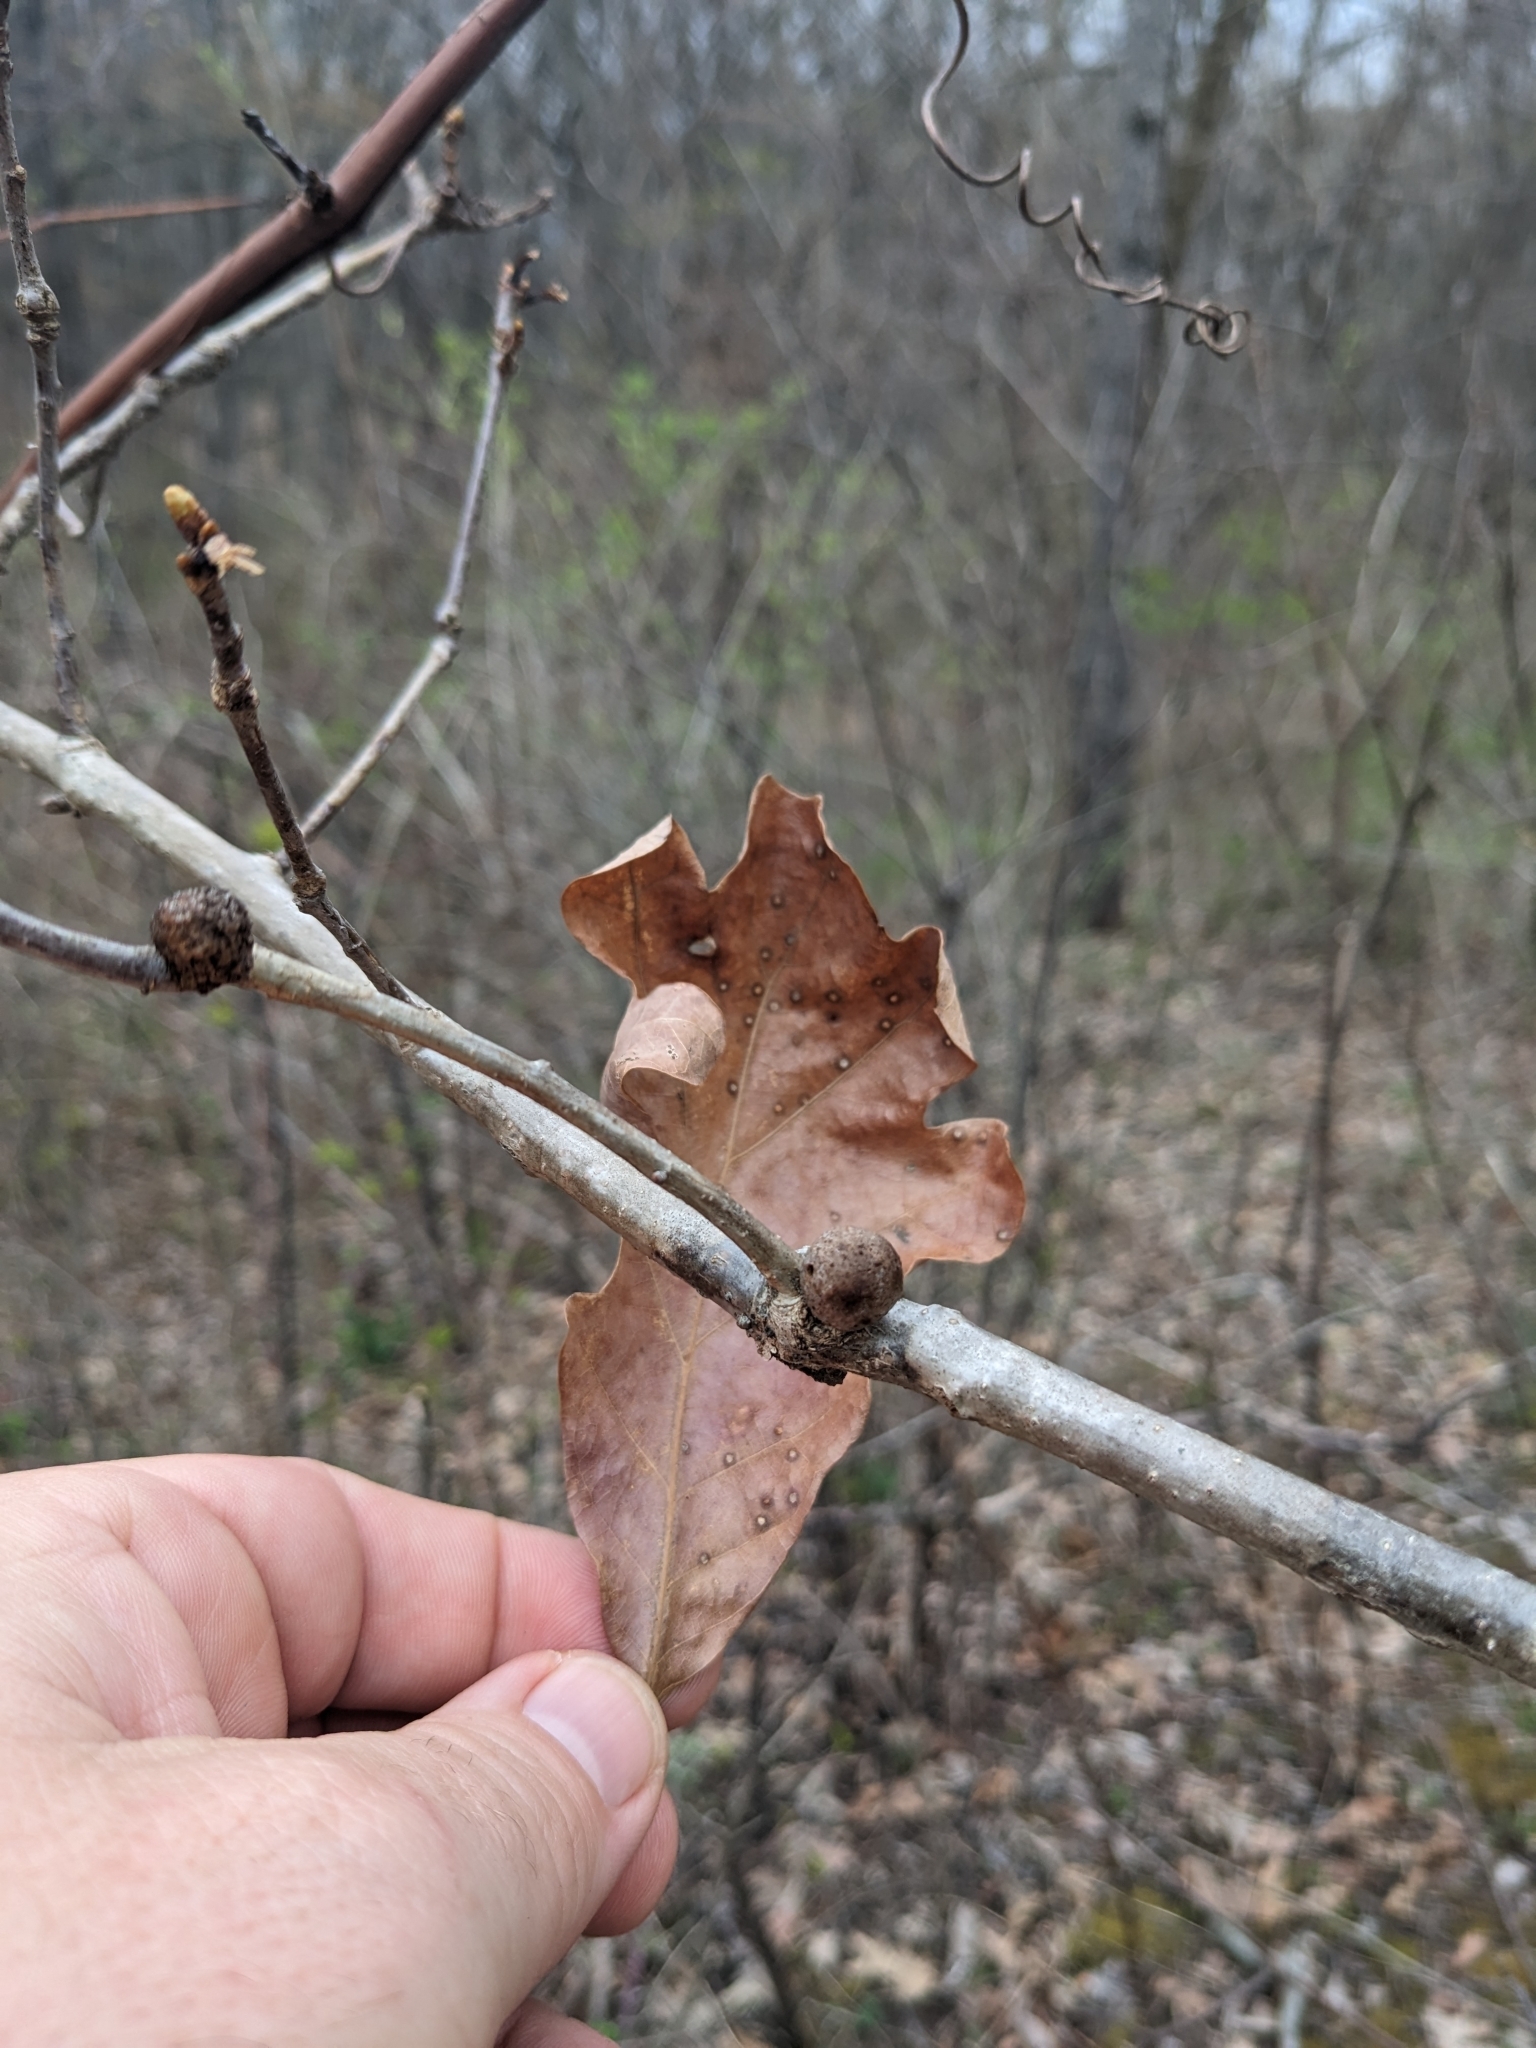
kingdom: Animalia
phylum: Arthropoda
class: Insecta
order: Hymenoptera
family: Cynipidae
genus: Disholcaspis
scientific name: Disholcaspis quercusglobulus
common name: Round bullet gall wasp
